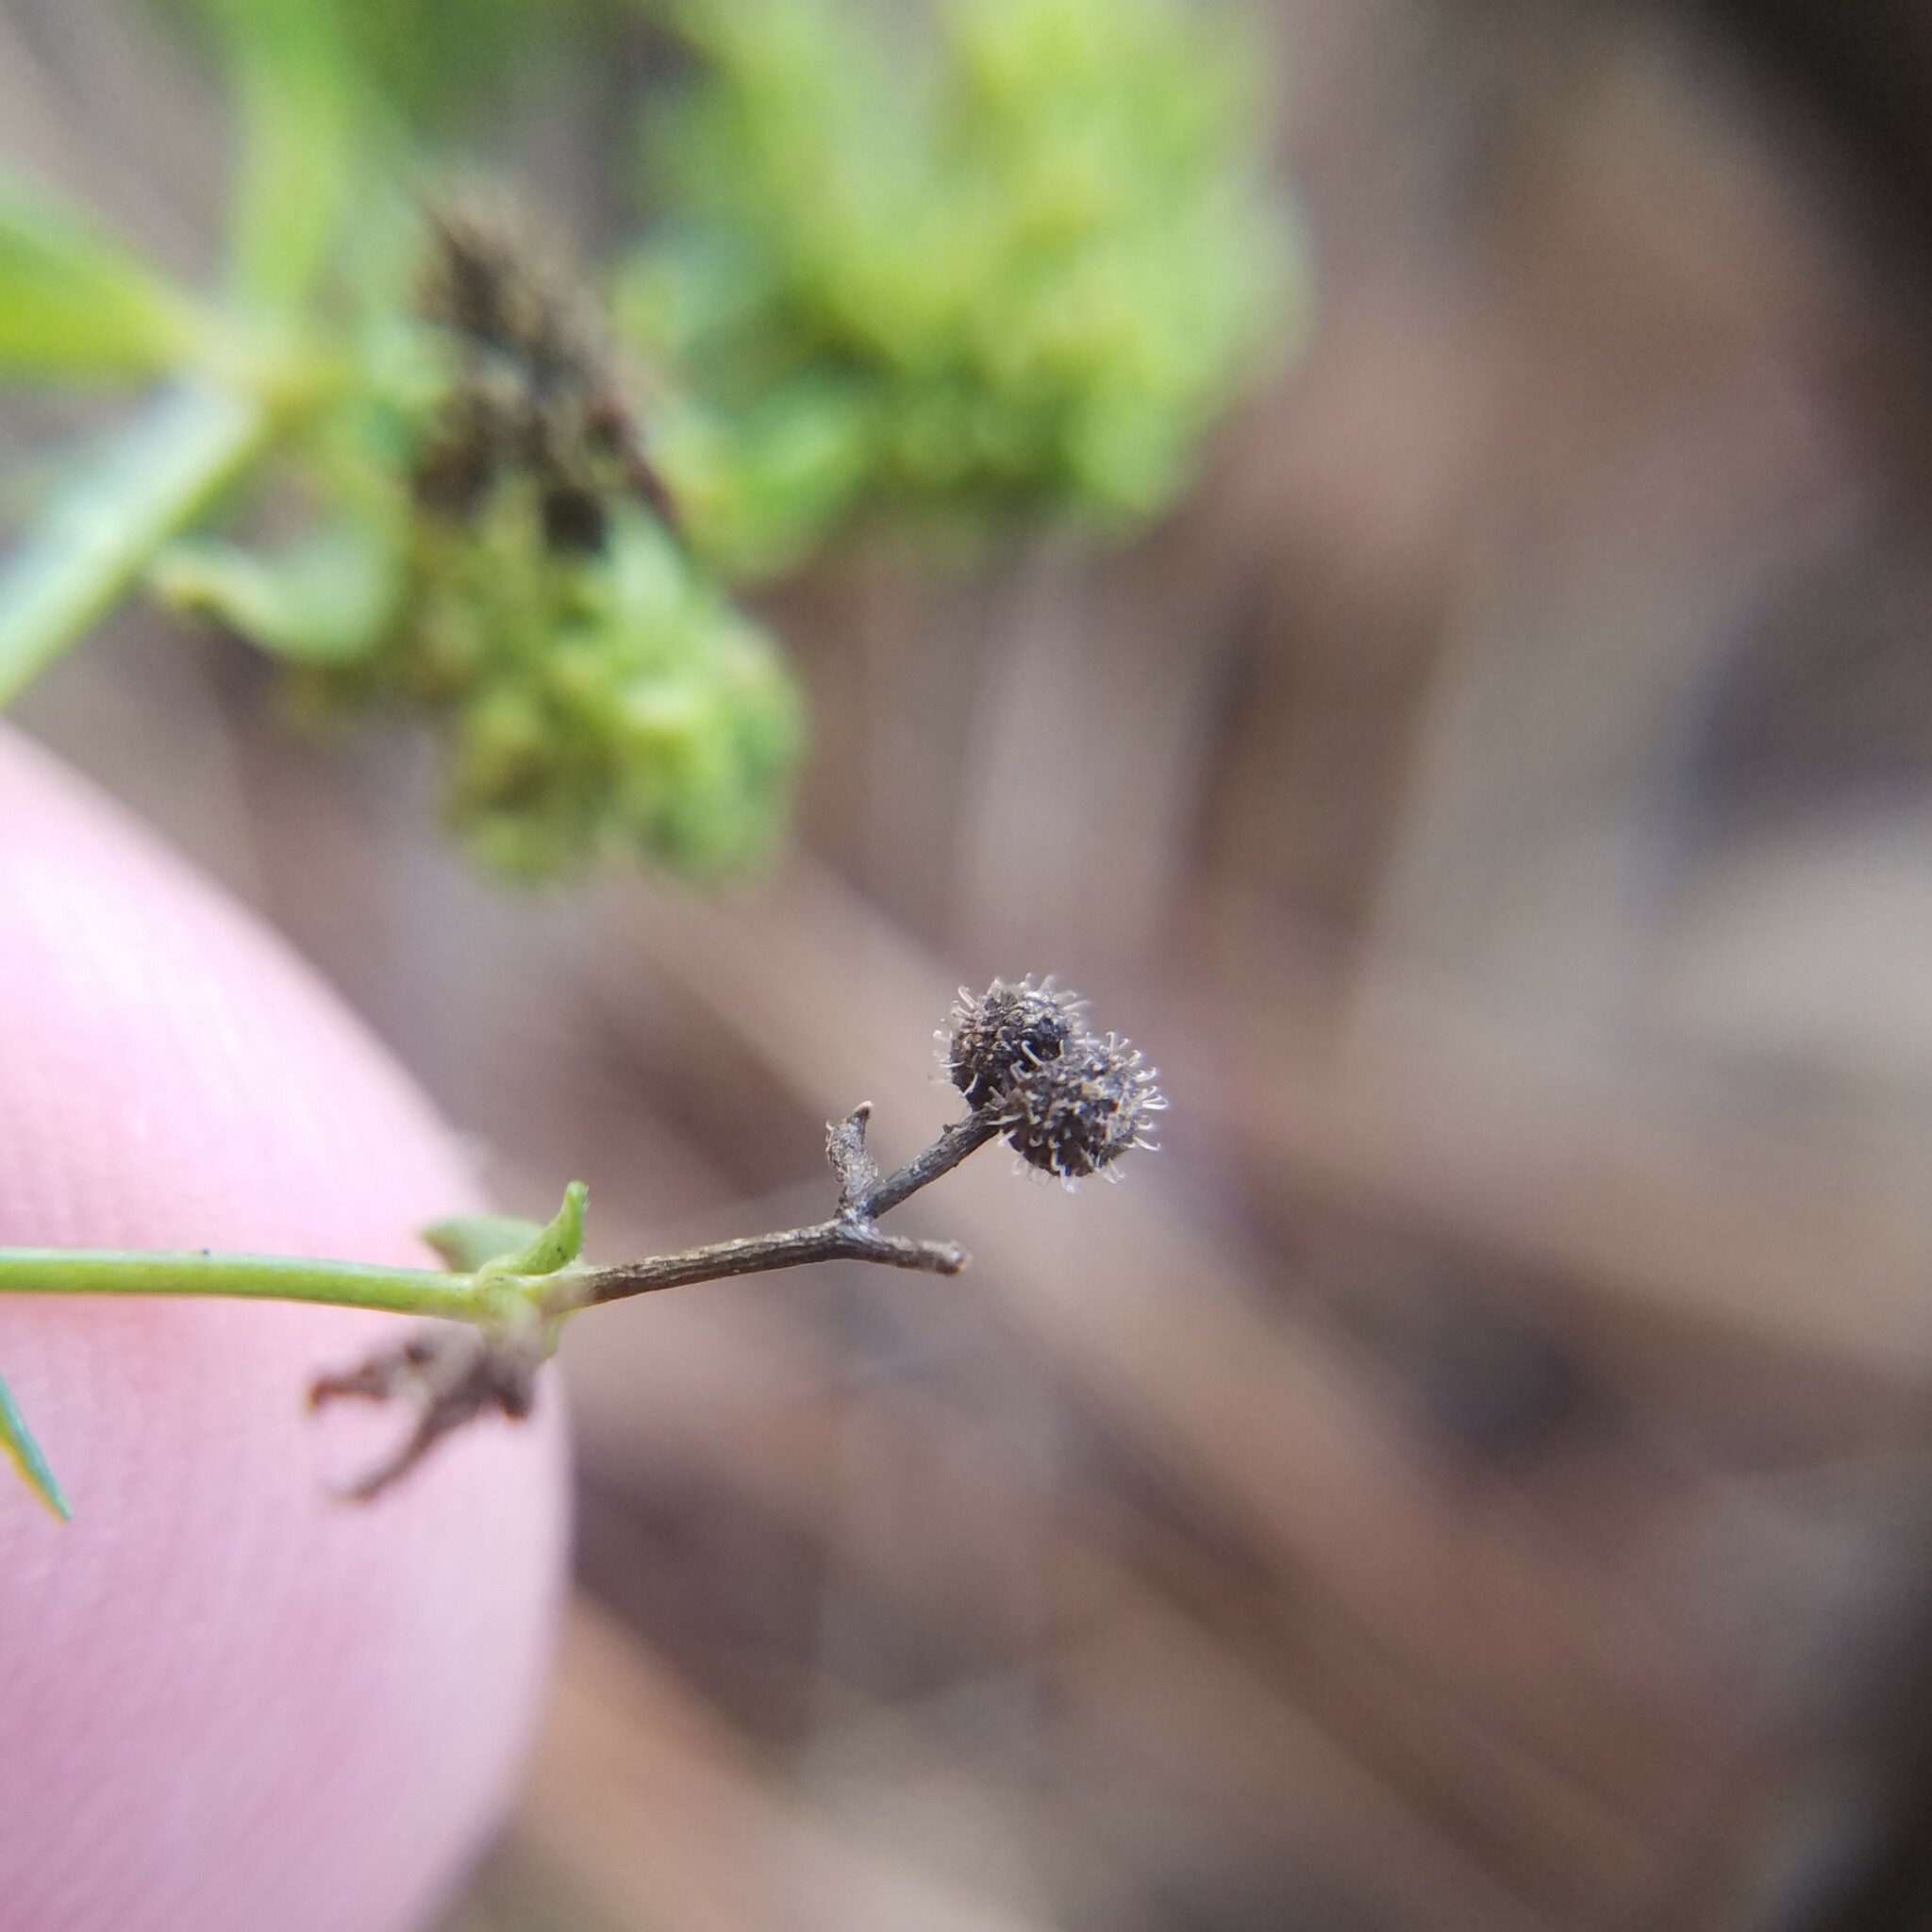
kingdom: Plantae
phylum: Tracheophyta
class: Magnoliopsida
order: Gentianales
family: Rubiaceae
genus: Galium
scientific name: Galium pilosum
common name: Hairy bedstraw
